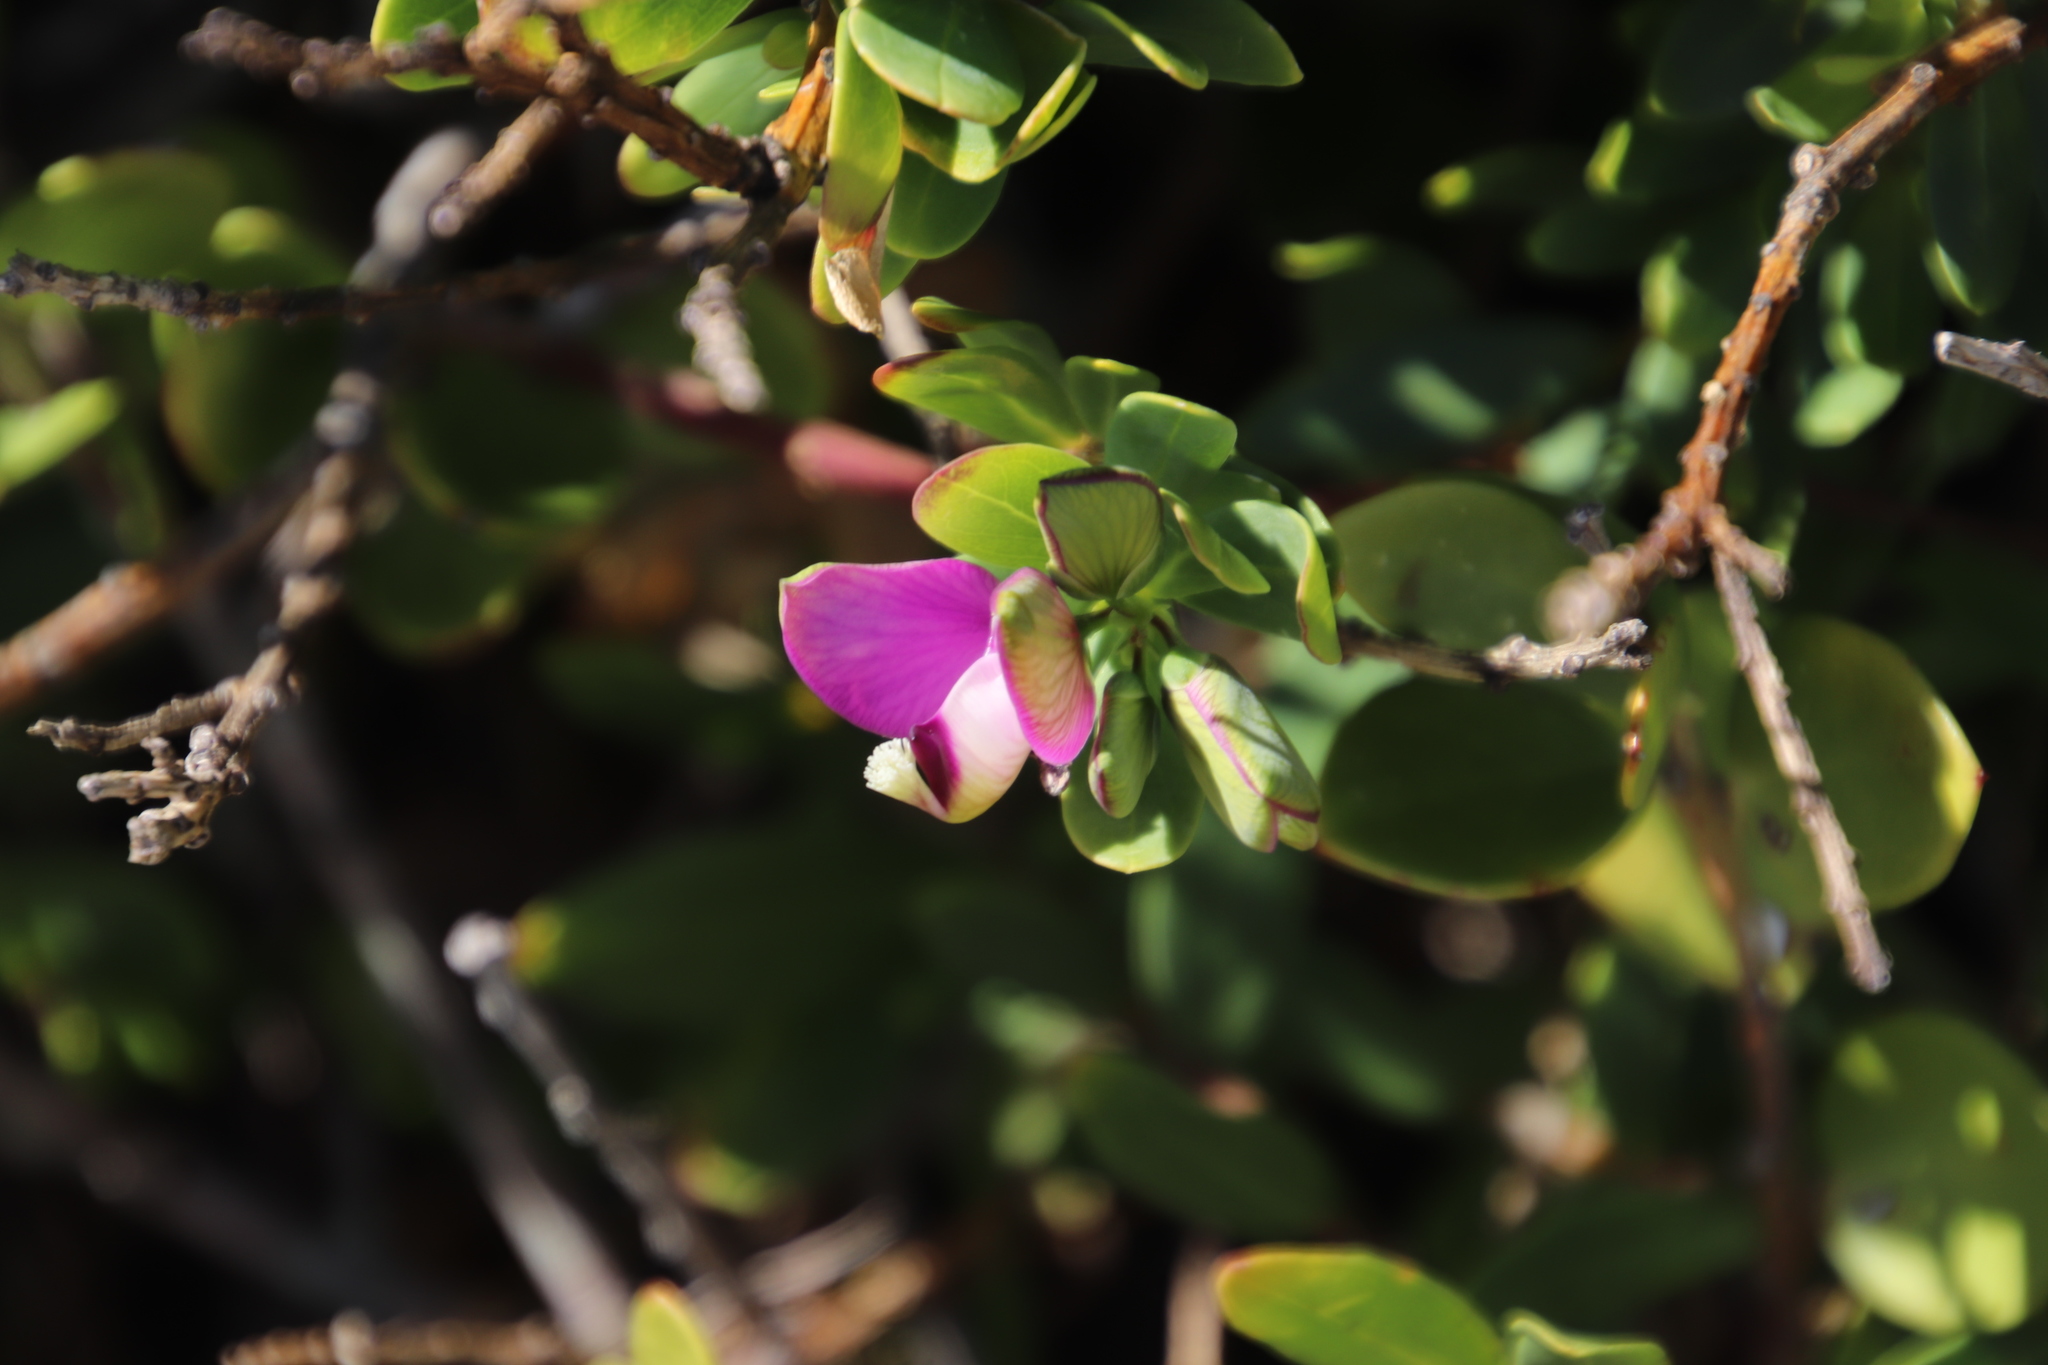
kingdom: Plantae
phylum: Tracheophyta
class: Magnoliopsida
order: Fabales
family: Polygalaceae
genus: Polygala
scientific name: Polygala myrtifolia
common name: Myrtle-leaf milkwort
